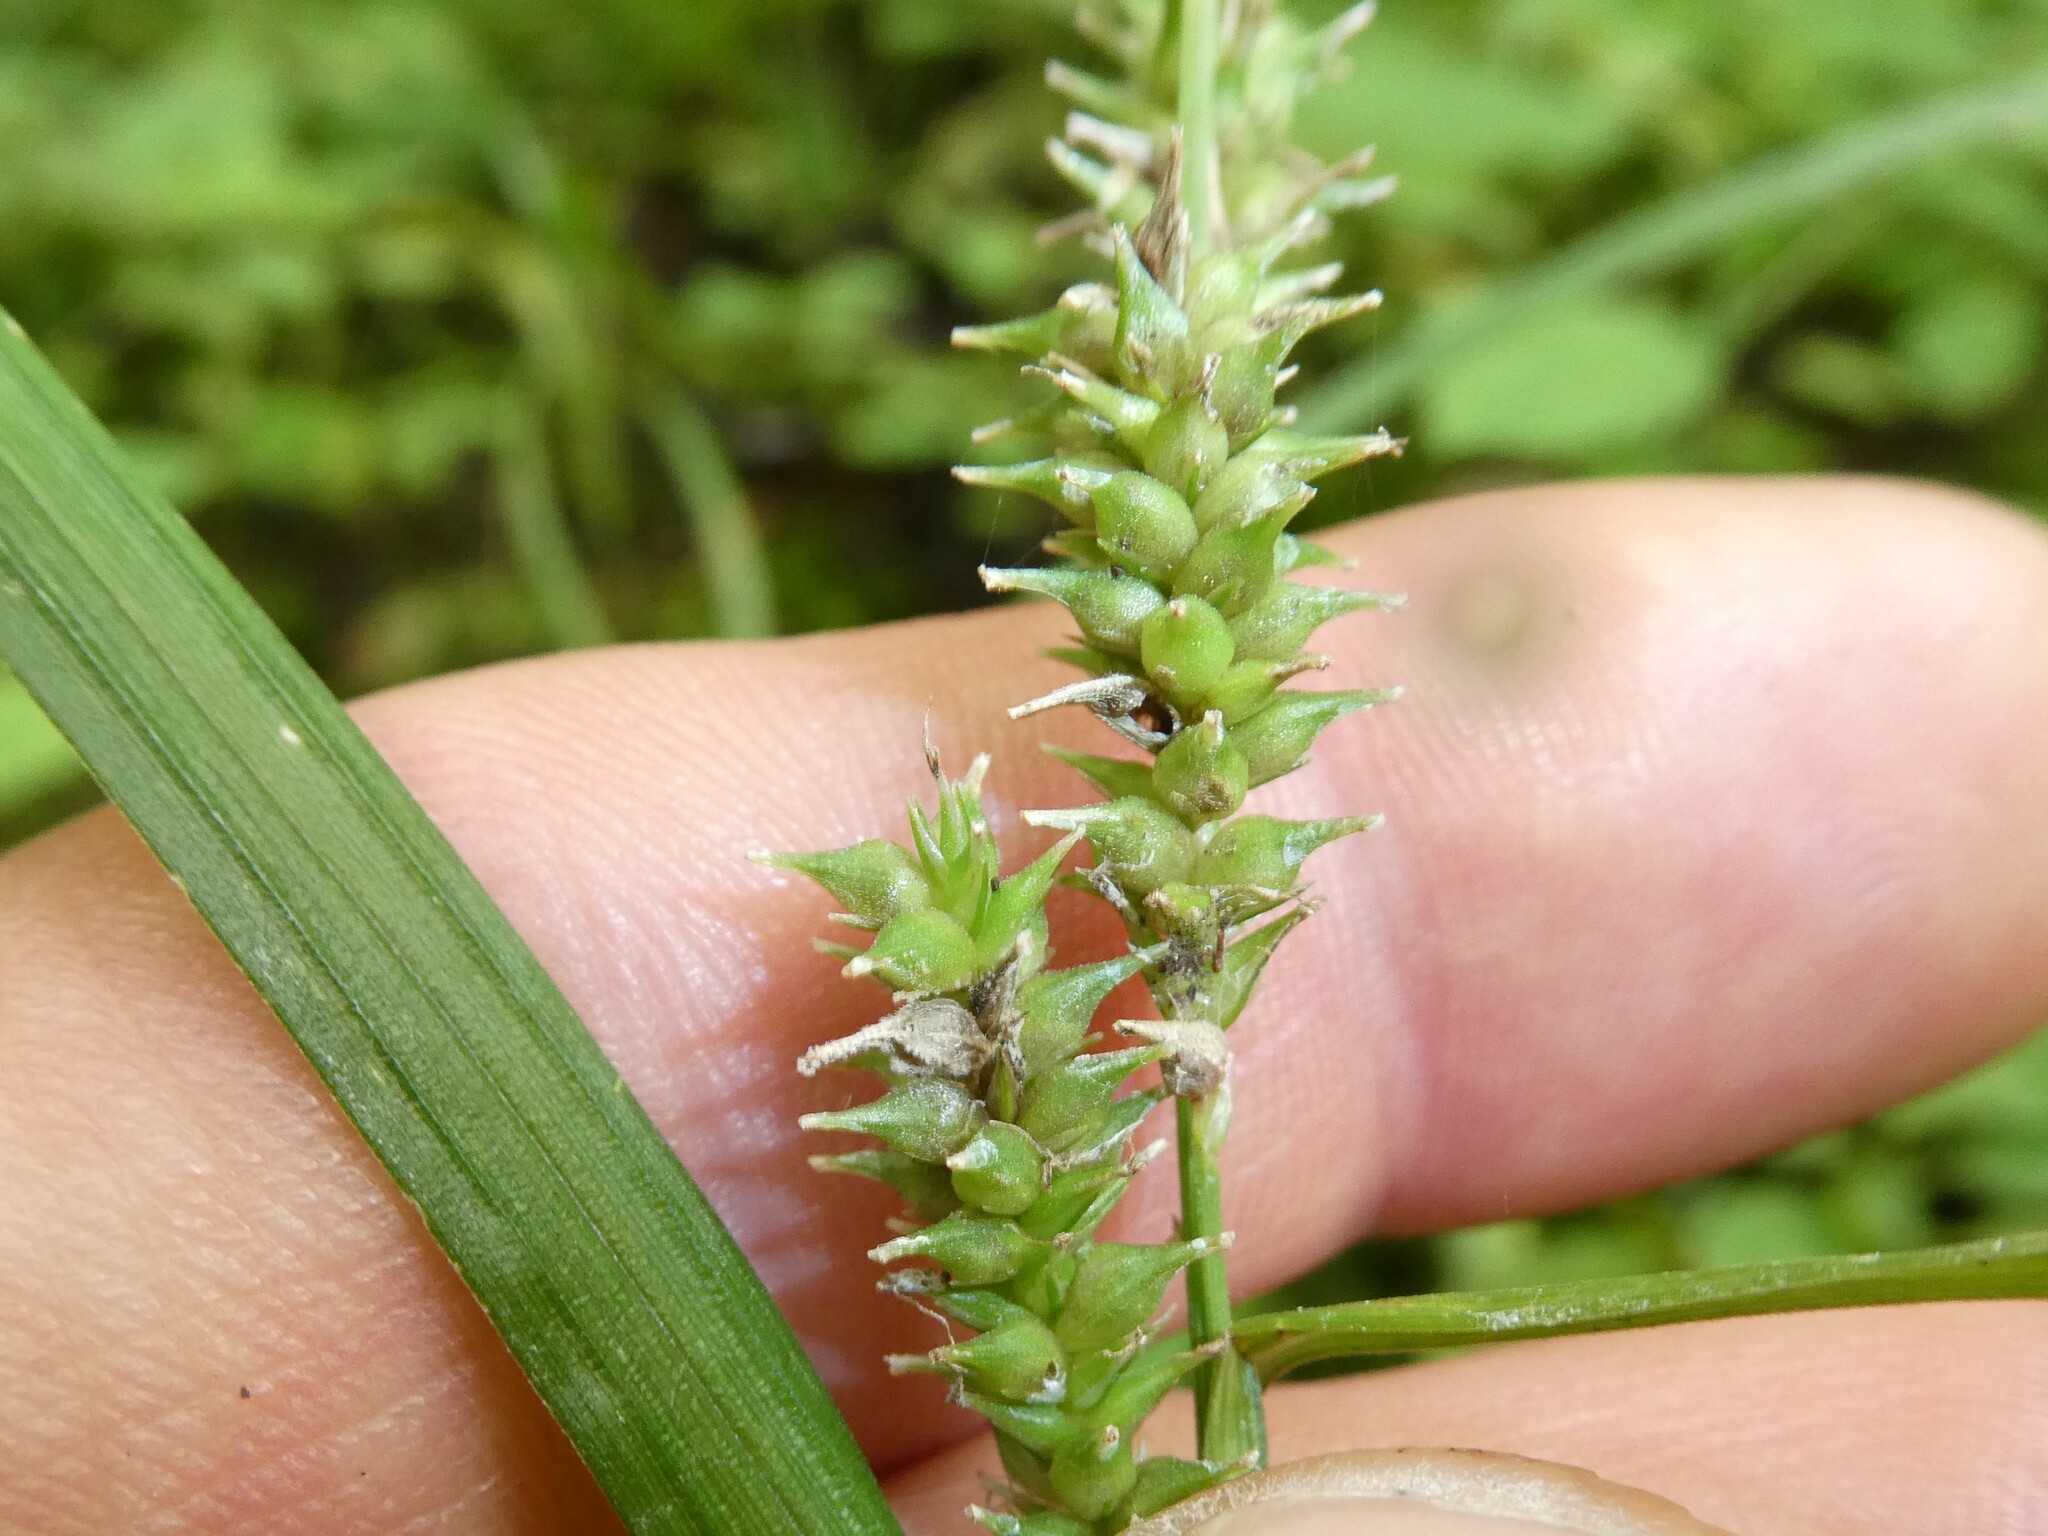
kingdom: Plantae
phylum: Tracheophyta
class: Liliopsida
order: Poales
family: Cyperaceae
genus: Carex
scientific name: Carex scabrata
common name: Eastern rough sedge
